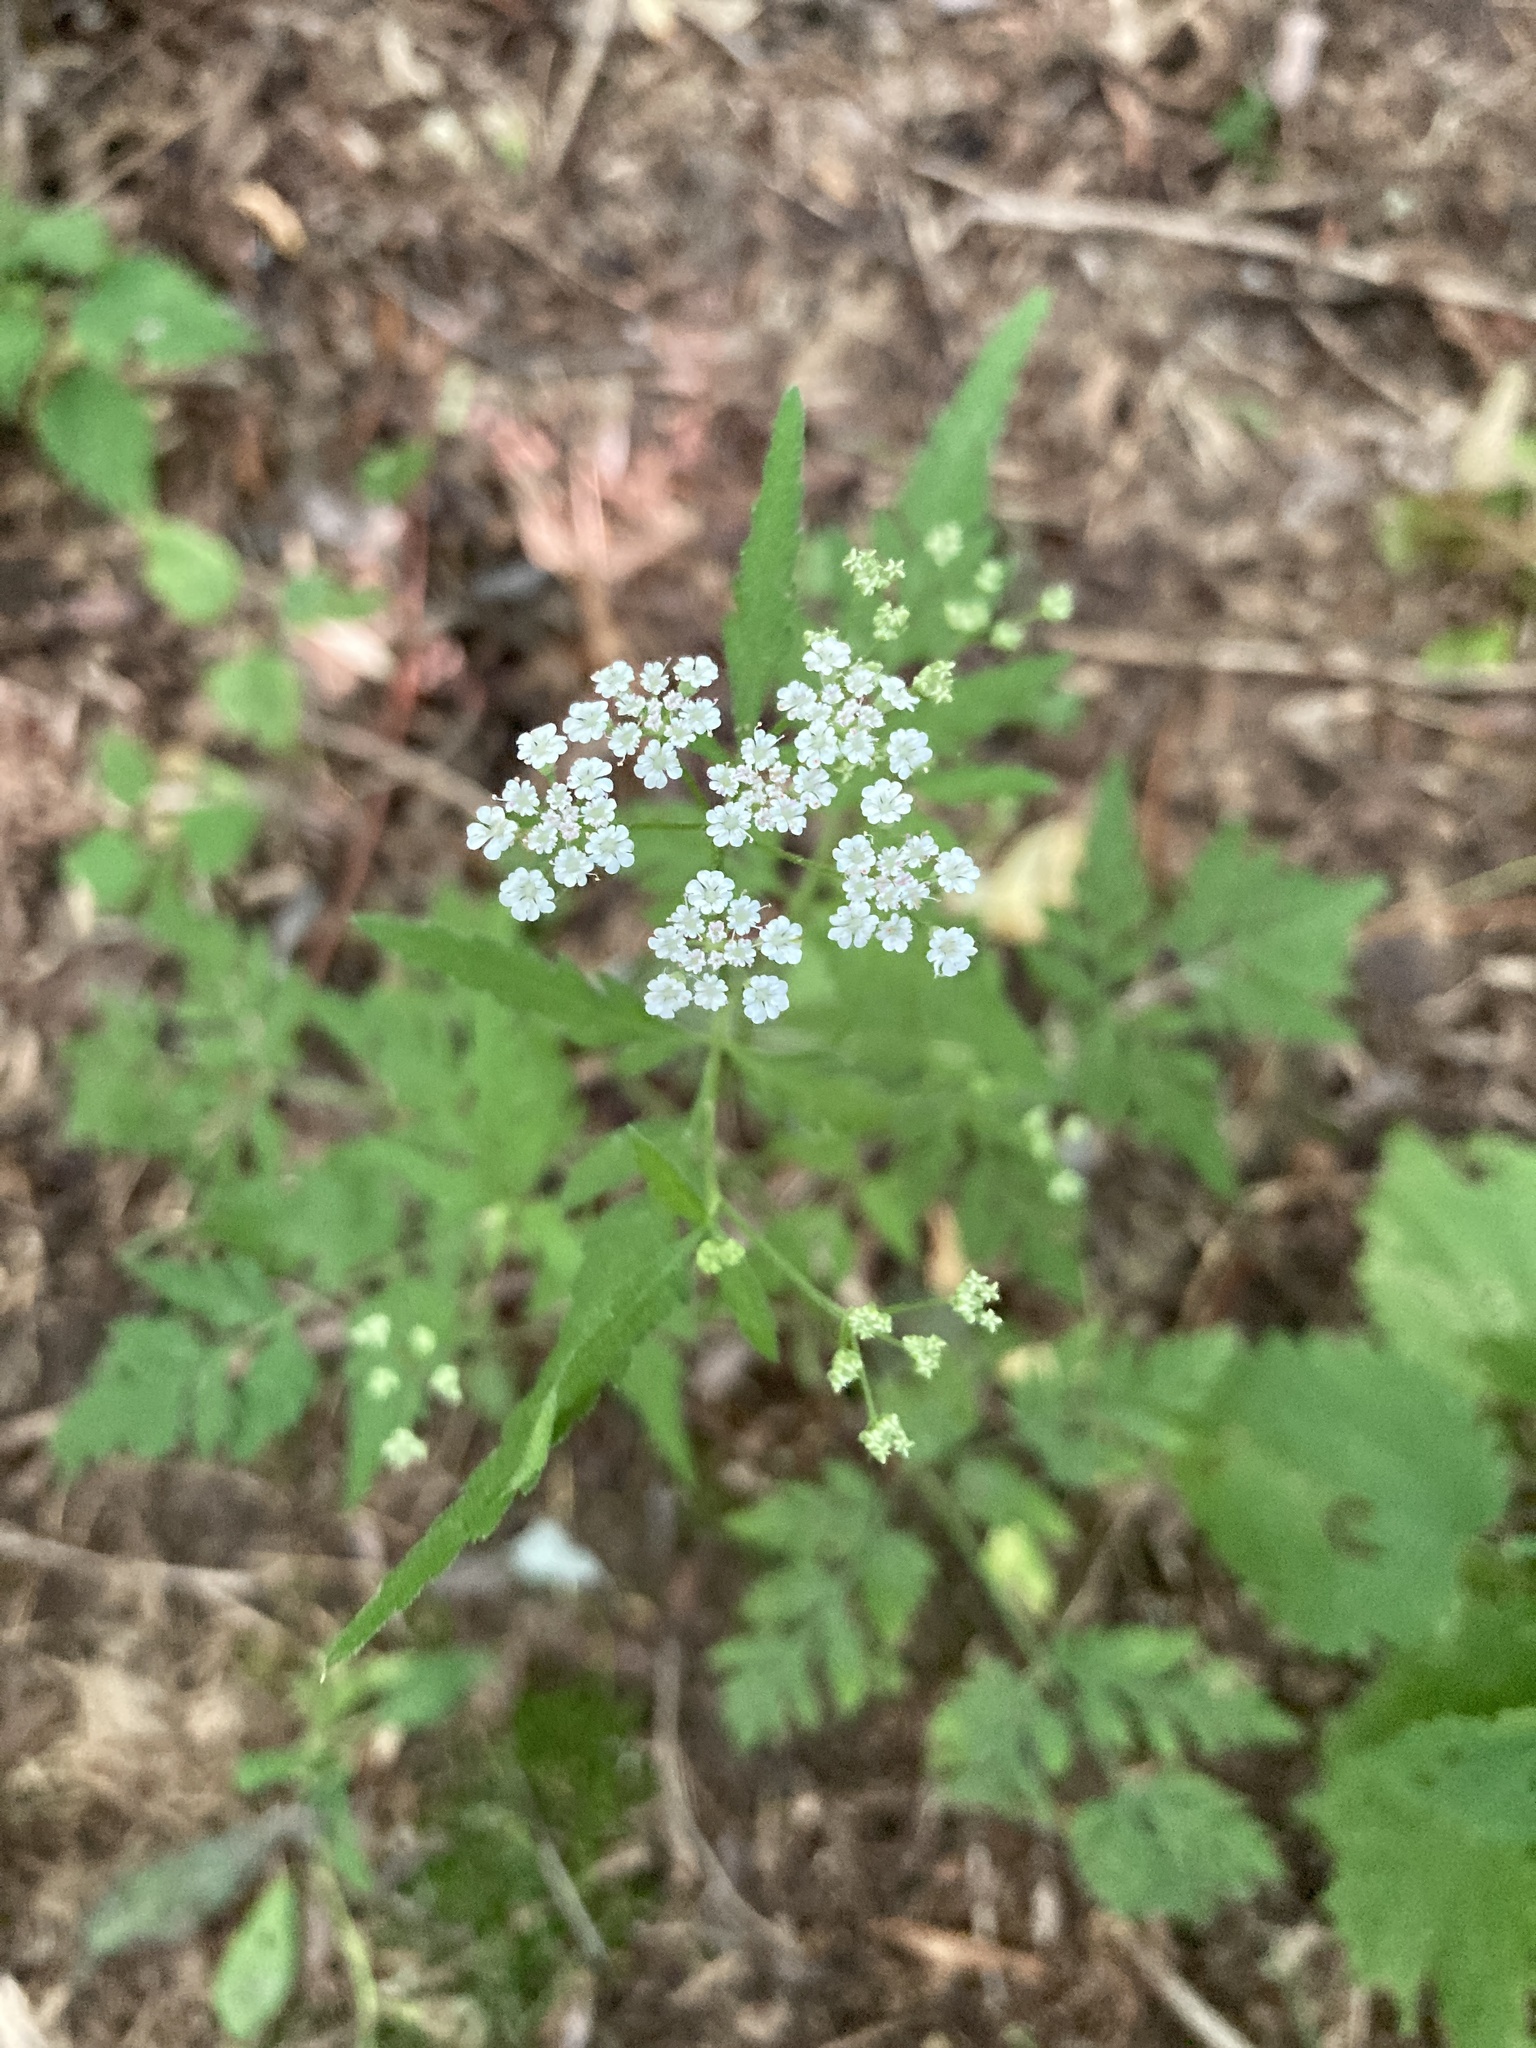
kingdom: Plantae
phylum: Tracheophyta
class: Magnoliopsida
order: Apiales
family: Apiaceae
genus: Torilis
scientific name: Torilis japonica
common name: Upright hedge-parsley
